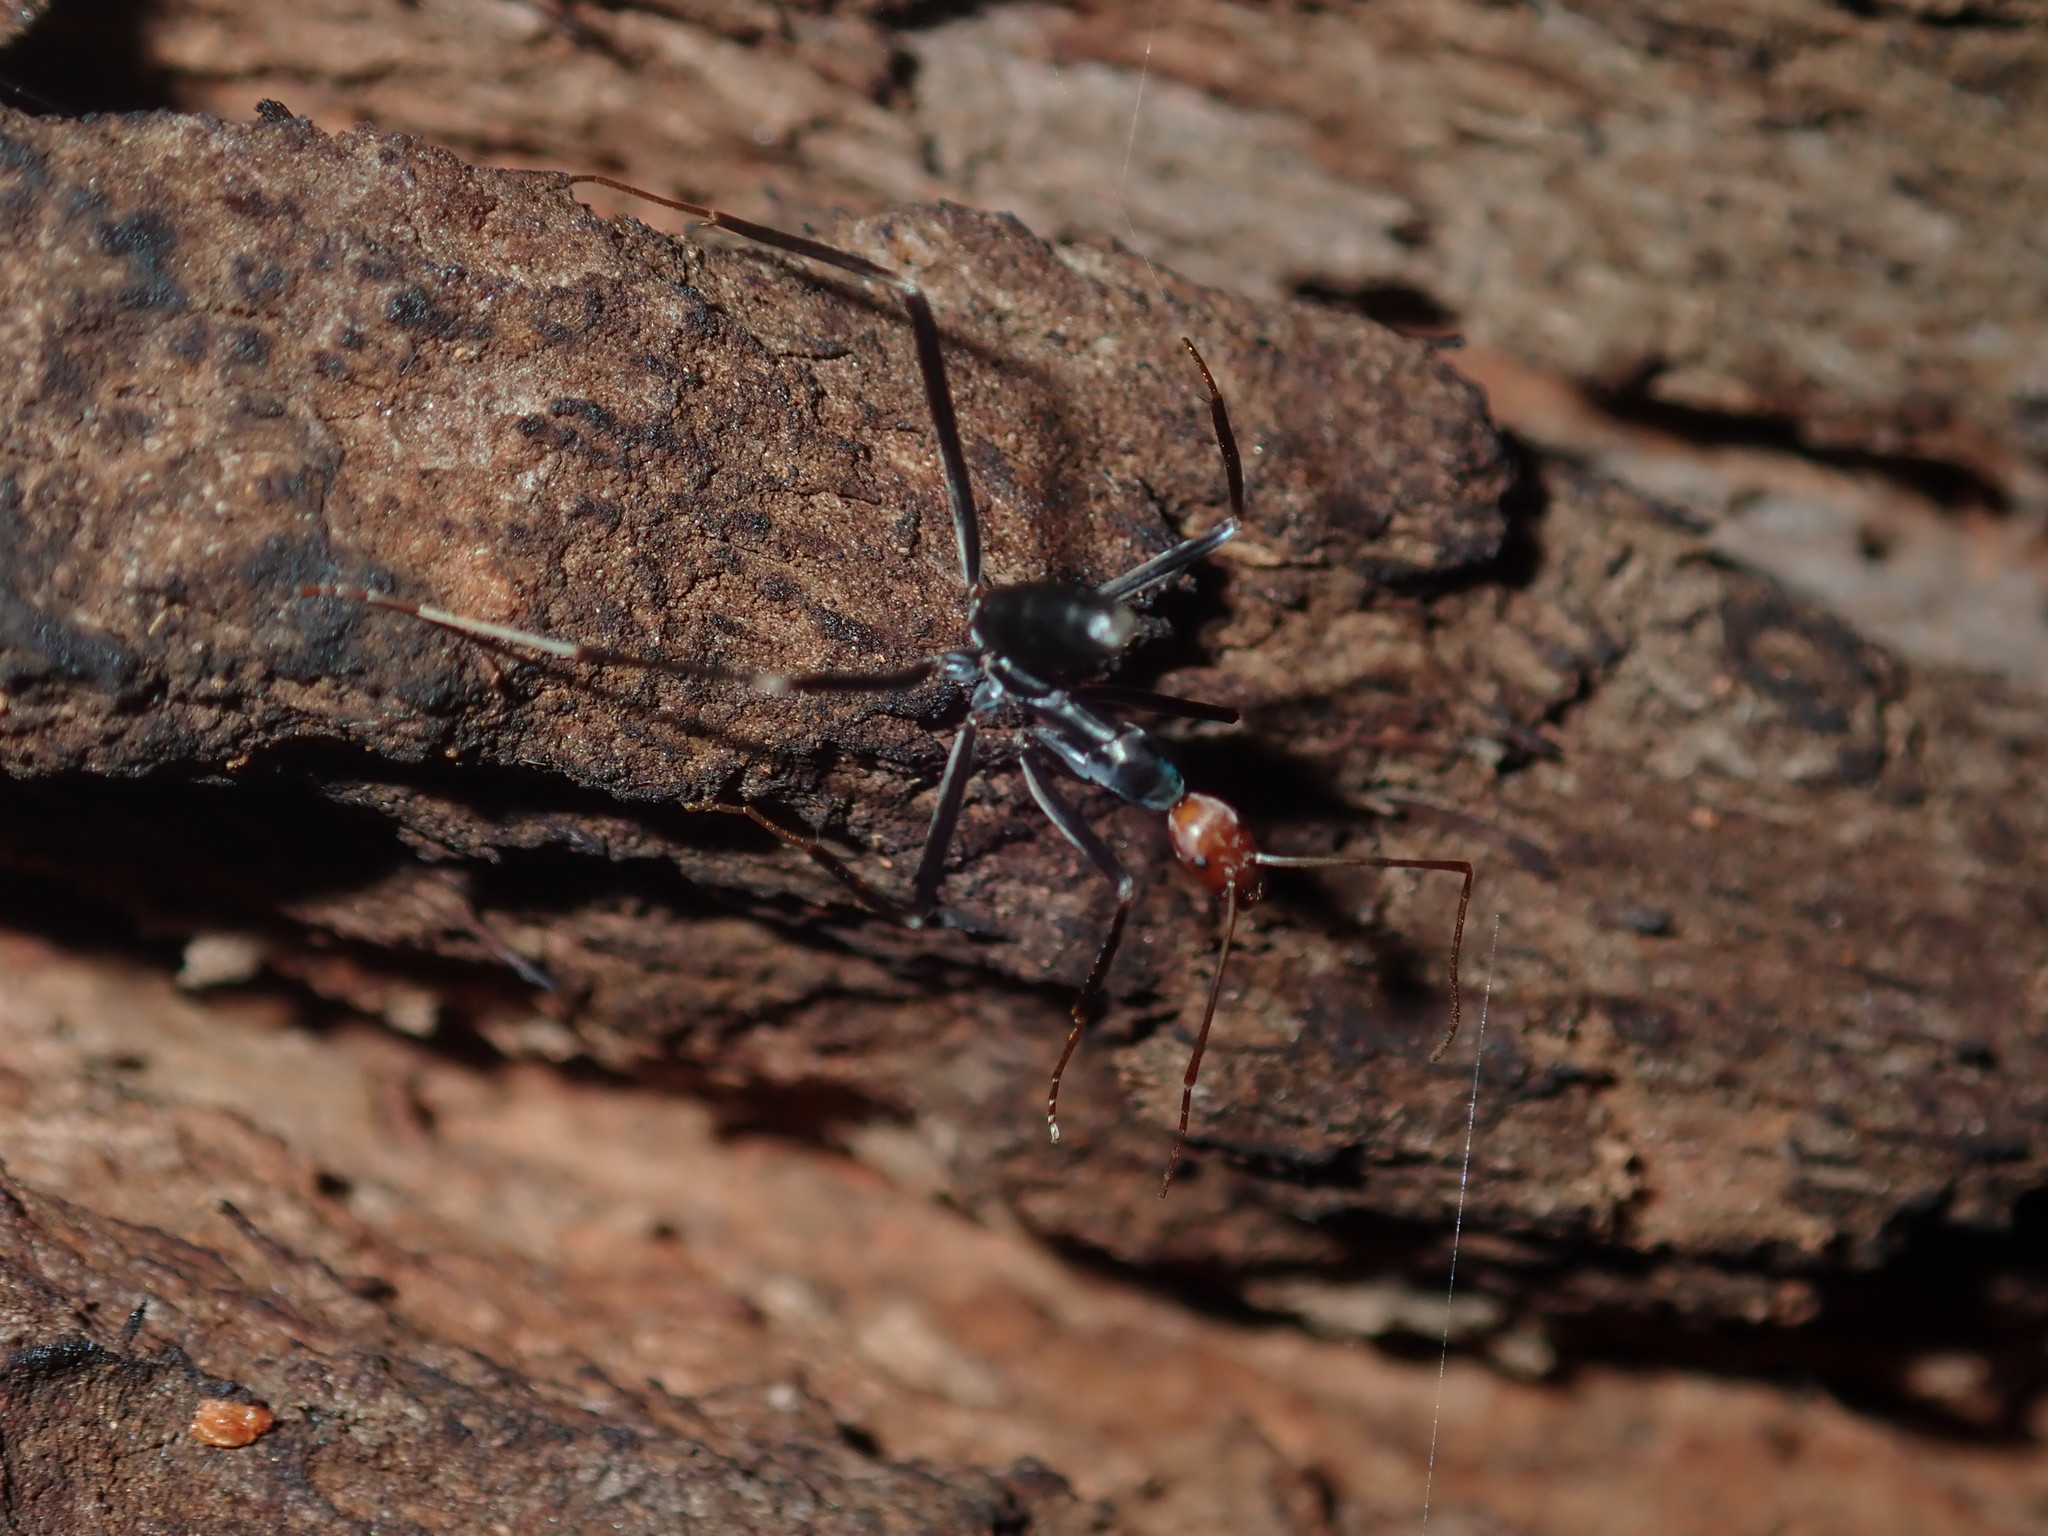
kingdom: Animalia
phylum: Arthropoda
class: Insecta
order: Hymenoptera
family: Formicidae
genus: Leptomyrmex
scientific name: Leptomyrmex erythrocephalus
